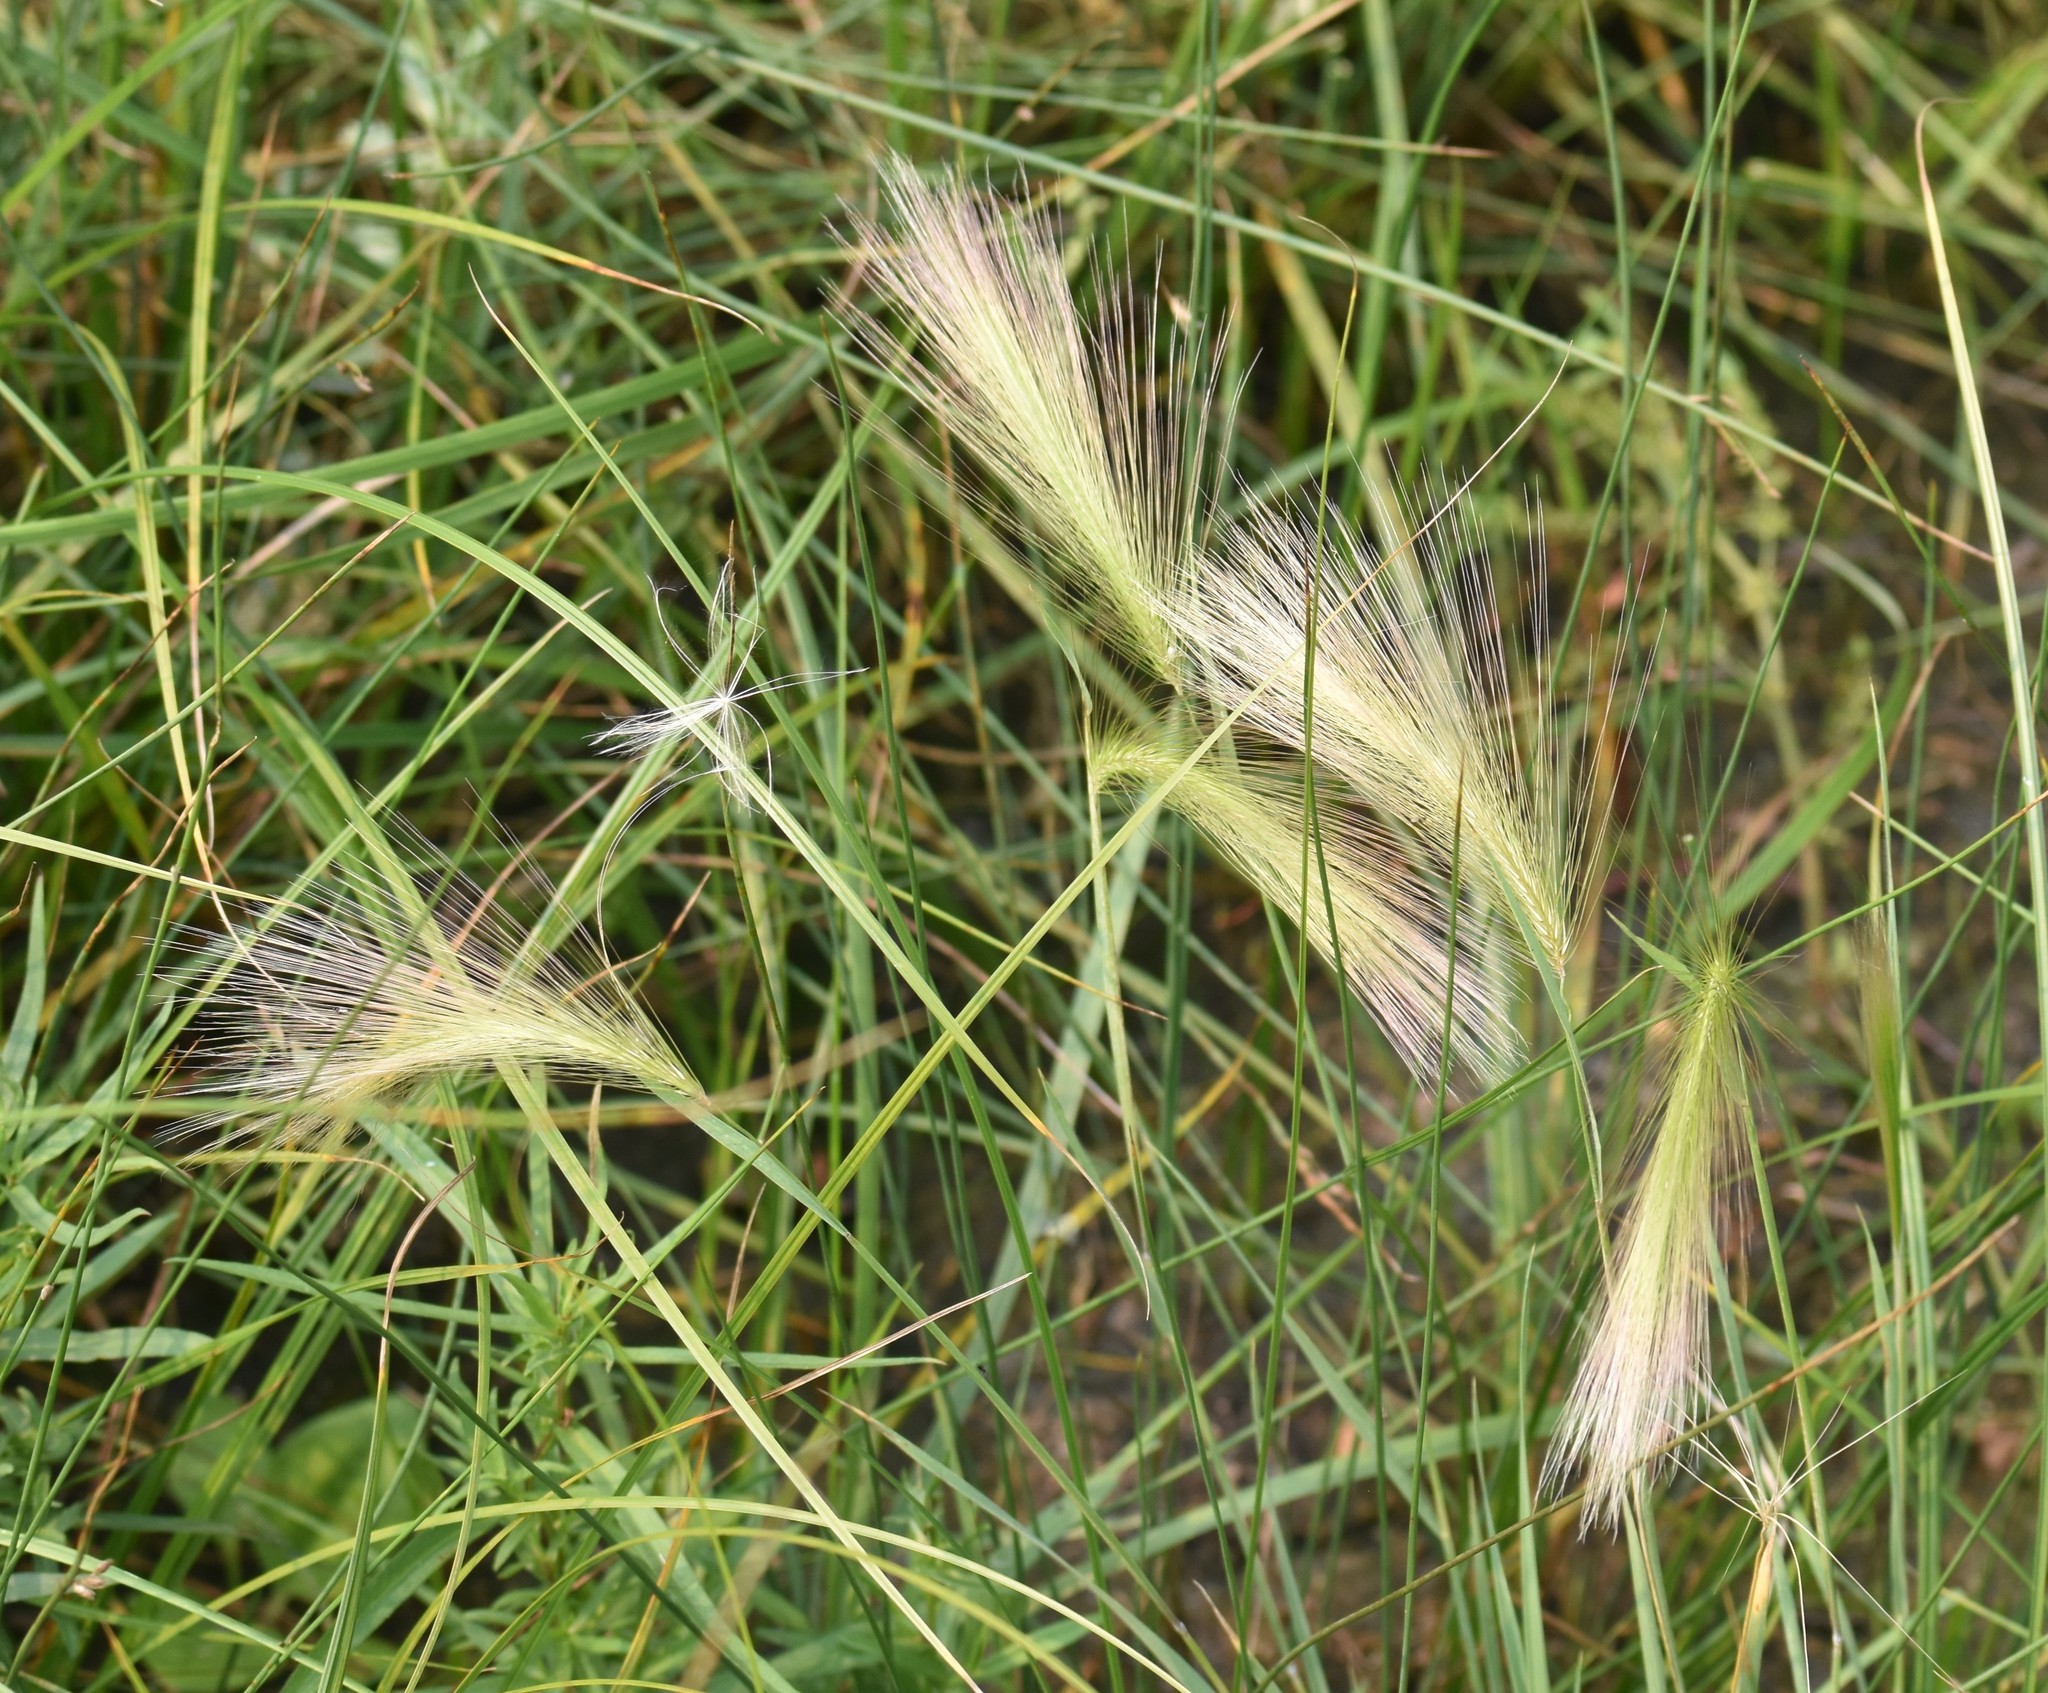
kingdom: Plantae
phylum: Tracheophyta
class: Liliopsida
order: Poales
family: Poaceae
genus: Hordeum
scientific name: Hordeum jubatum
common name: Foxtail barley
